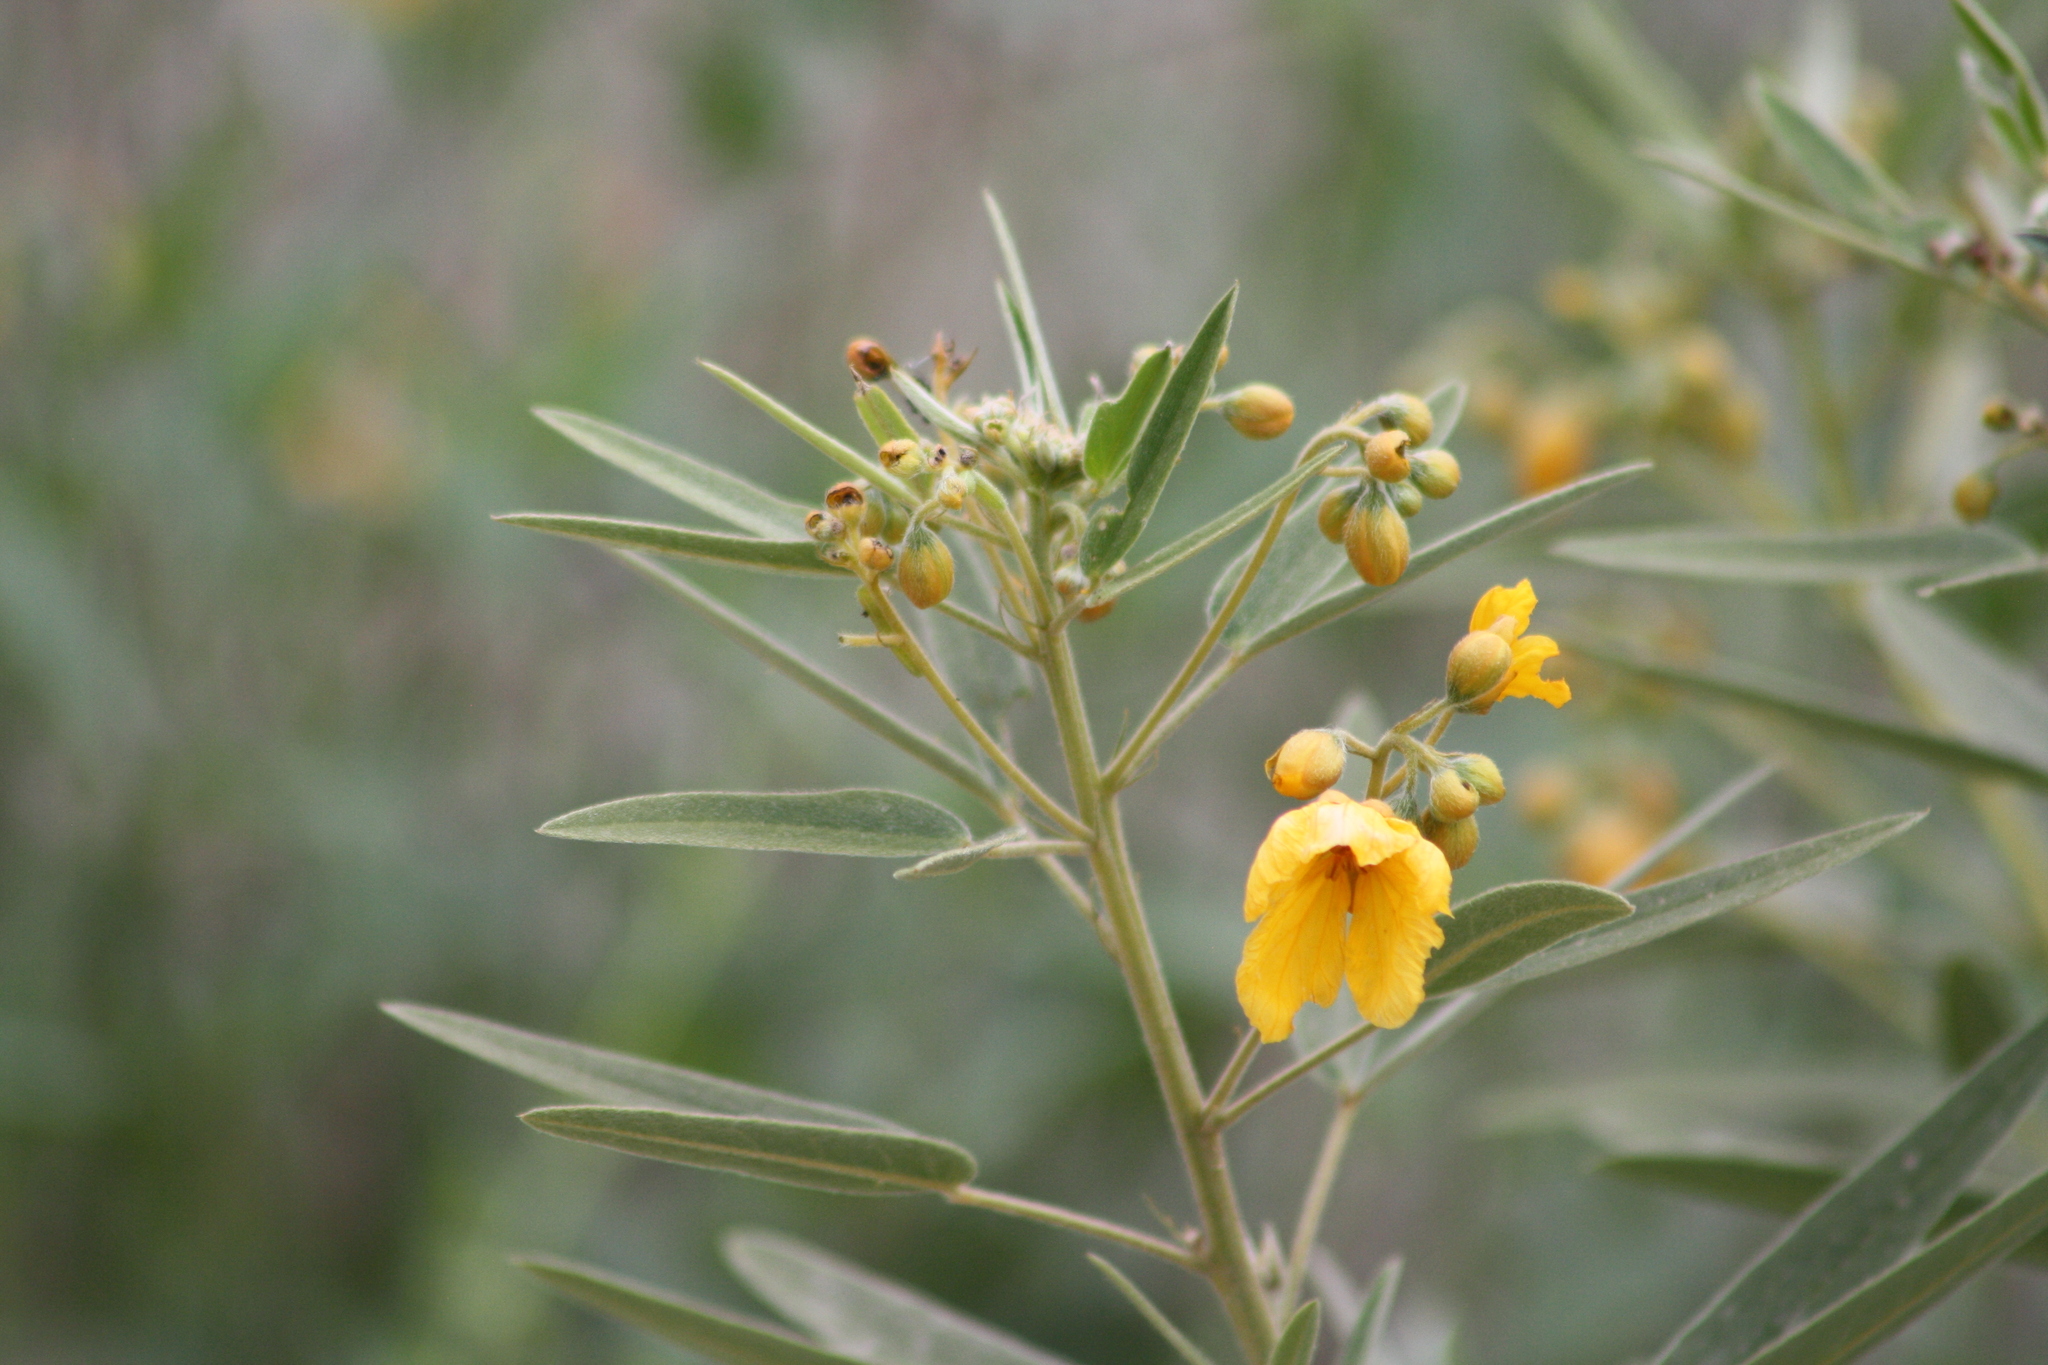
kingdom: Plantae
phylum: Tracheophyta
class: Magnoliopsida
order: Fabales
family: Fabaceae
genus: Senna
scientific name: Senna roemeriana
